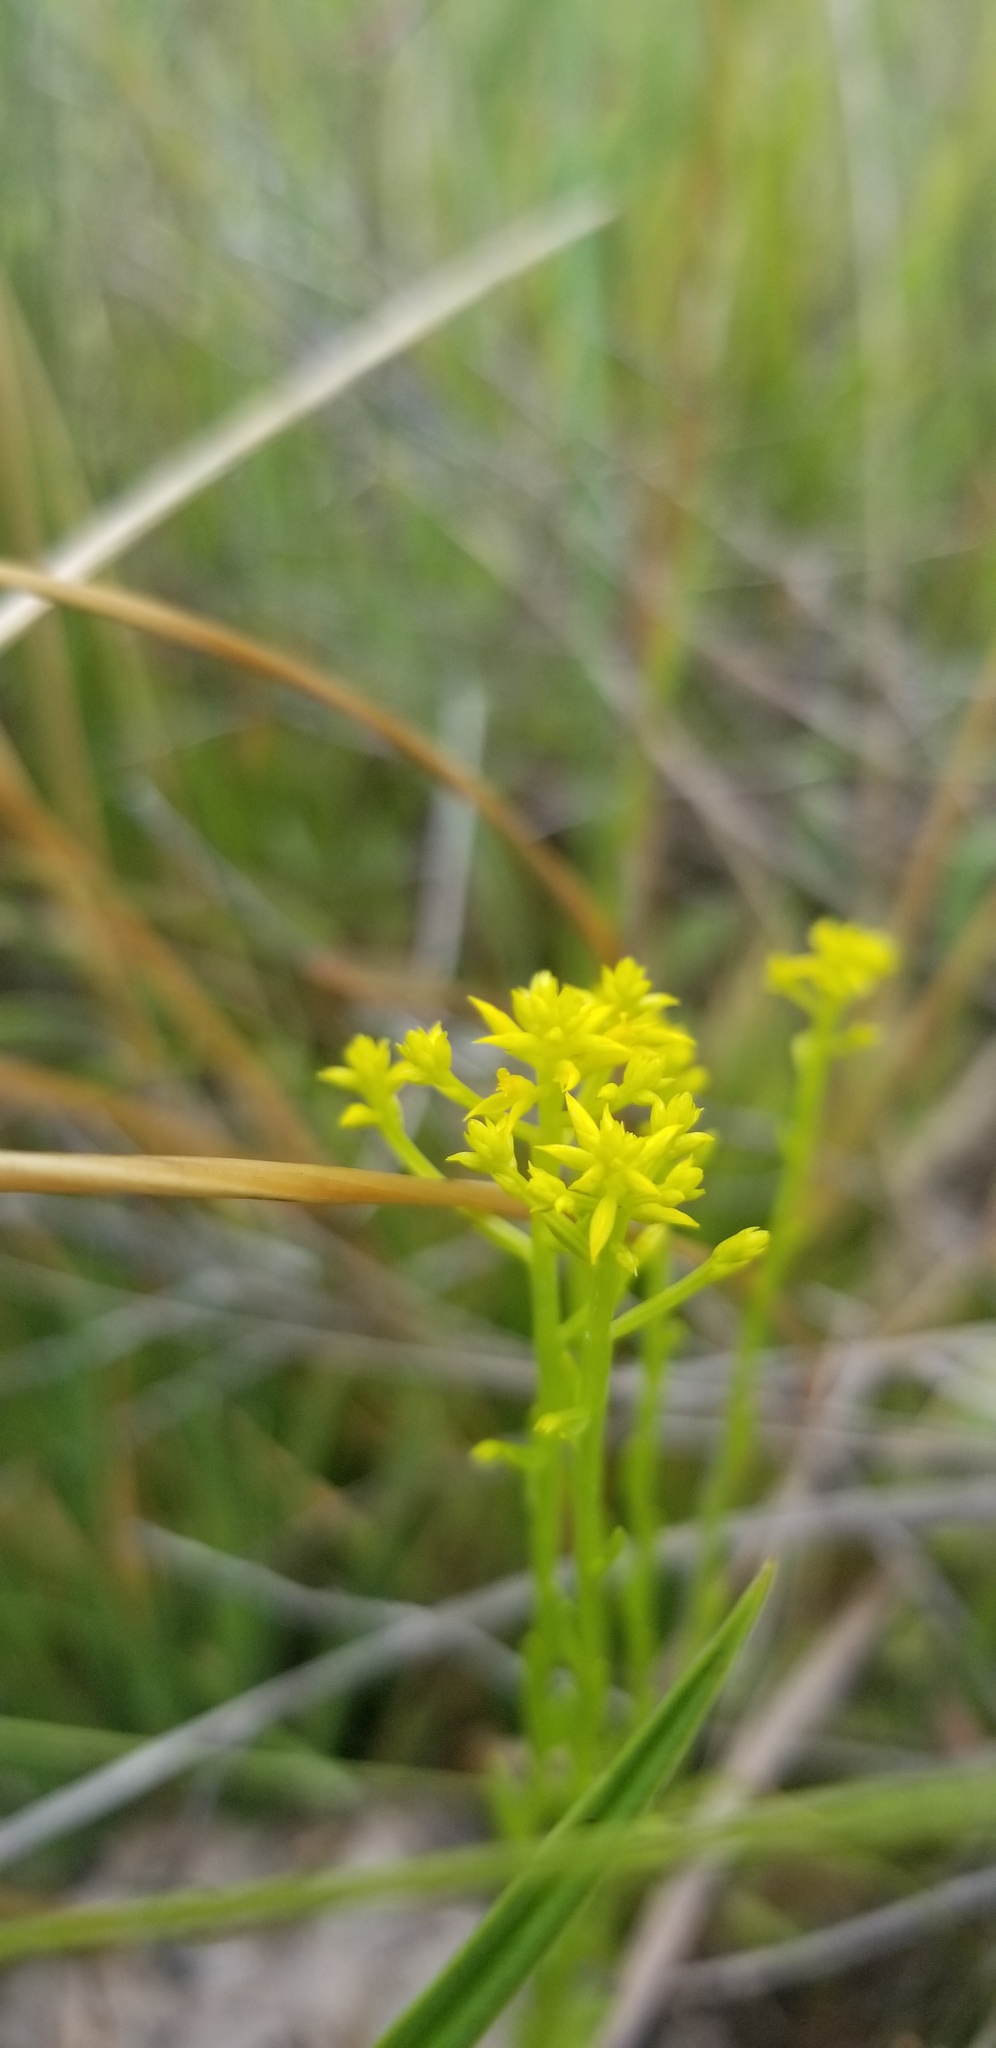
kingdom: Plantae
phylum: Tracheophyta
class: Magnoliopsida
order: Fabales
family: Polygalaceae
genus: Polygala
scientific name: Polygala ramosa
